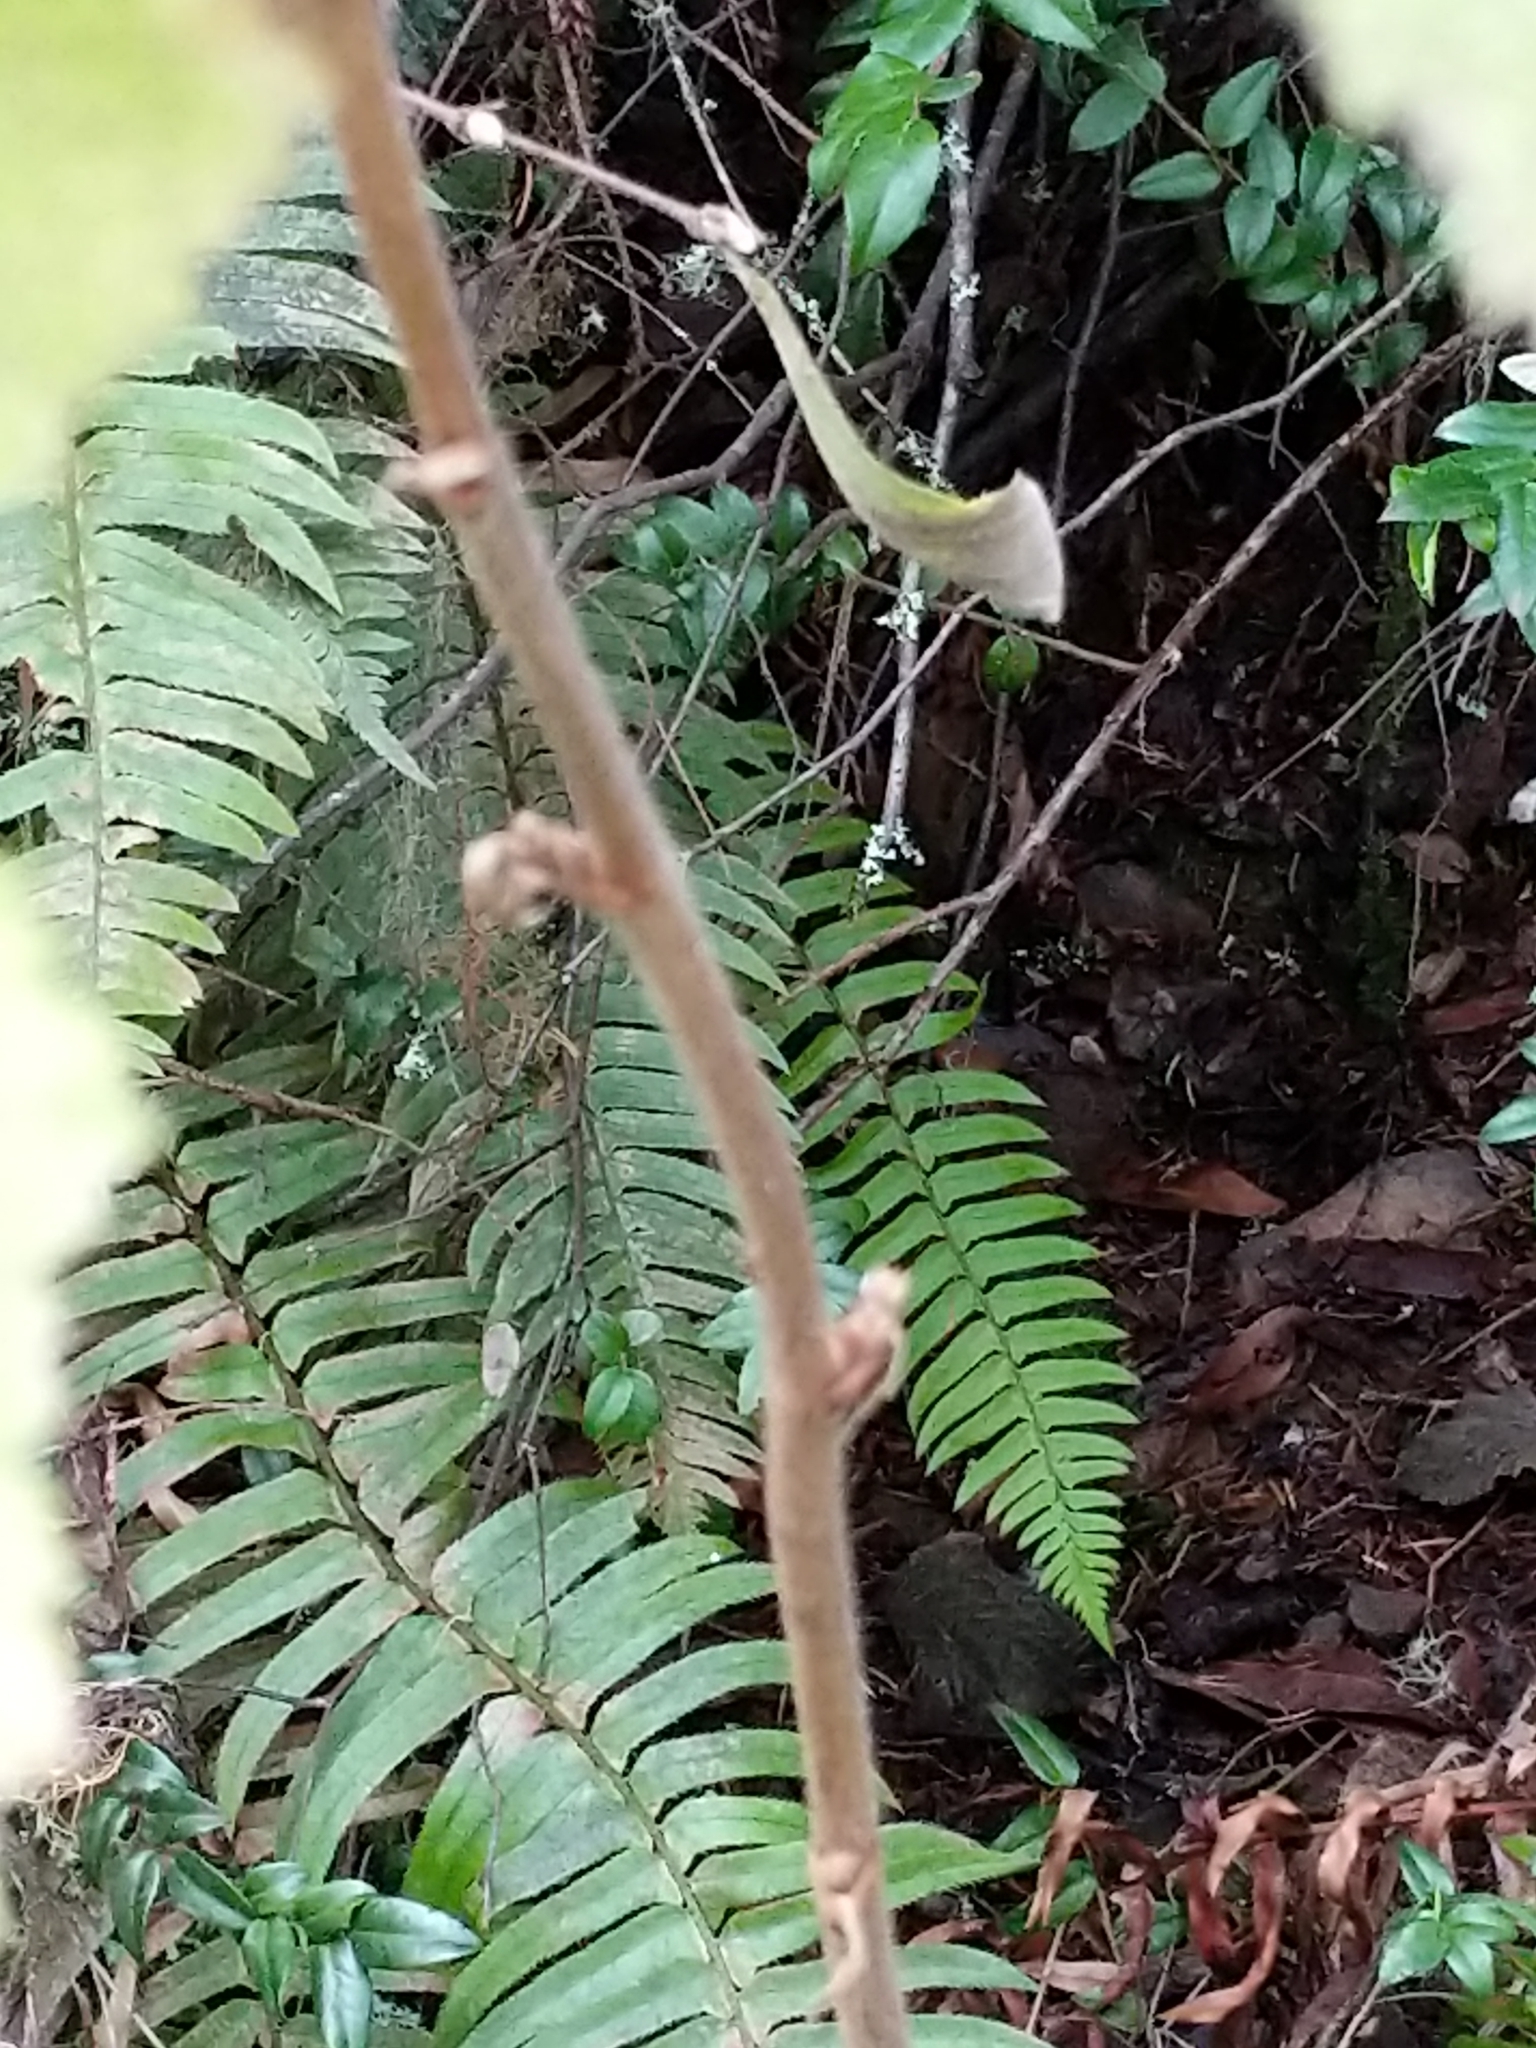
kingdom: Plantae
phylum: Tracheophyta
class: Magnoliopsida
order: Rosales
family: Rosaceae
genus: Rubus
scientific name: Rubus parviflorus
